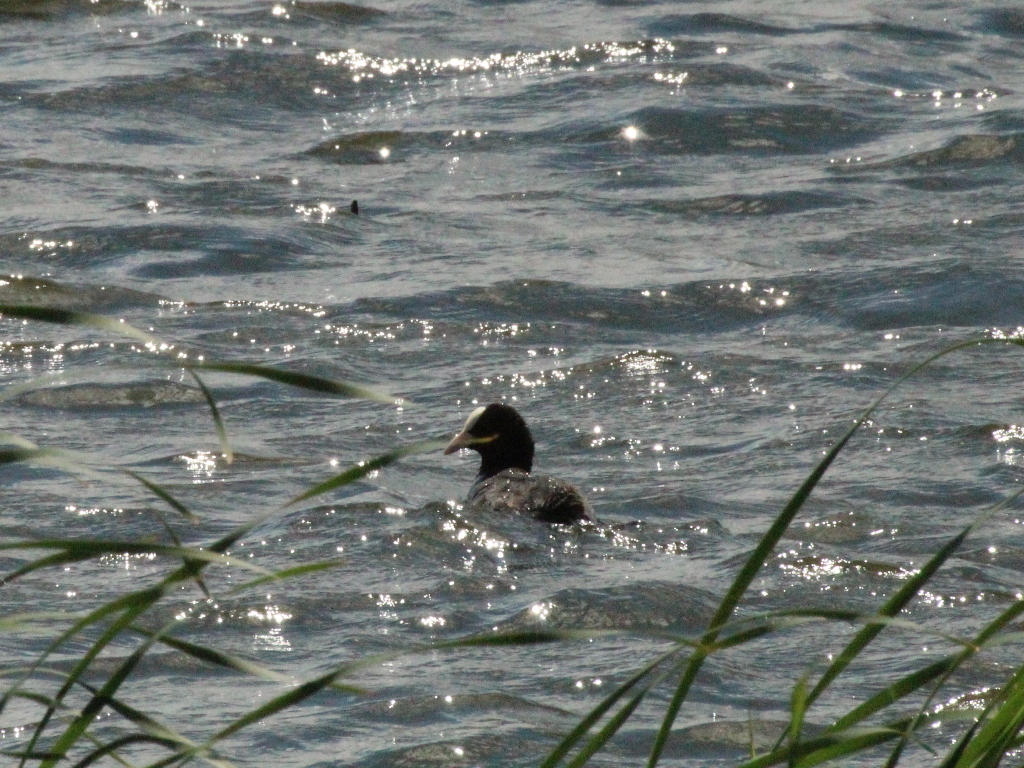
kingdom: Animalia
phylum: Chordata
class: Aves
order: Gruiformes
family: Rallidae
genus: Fulica
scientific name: Fulica atra
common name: Eurasian coot
